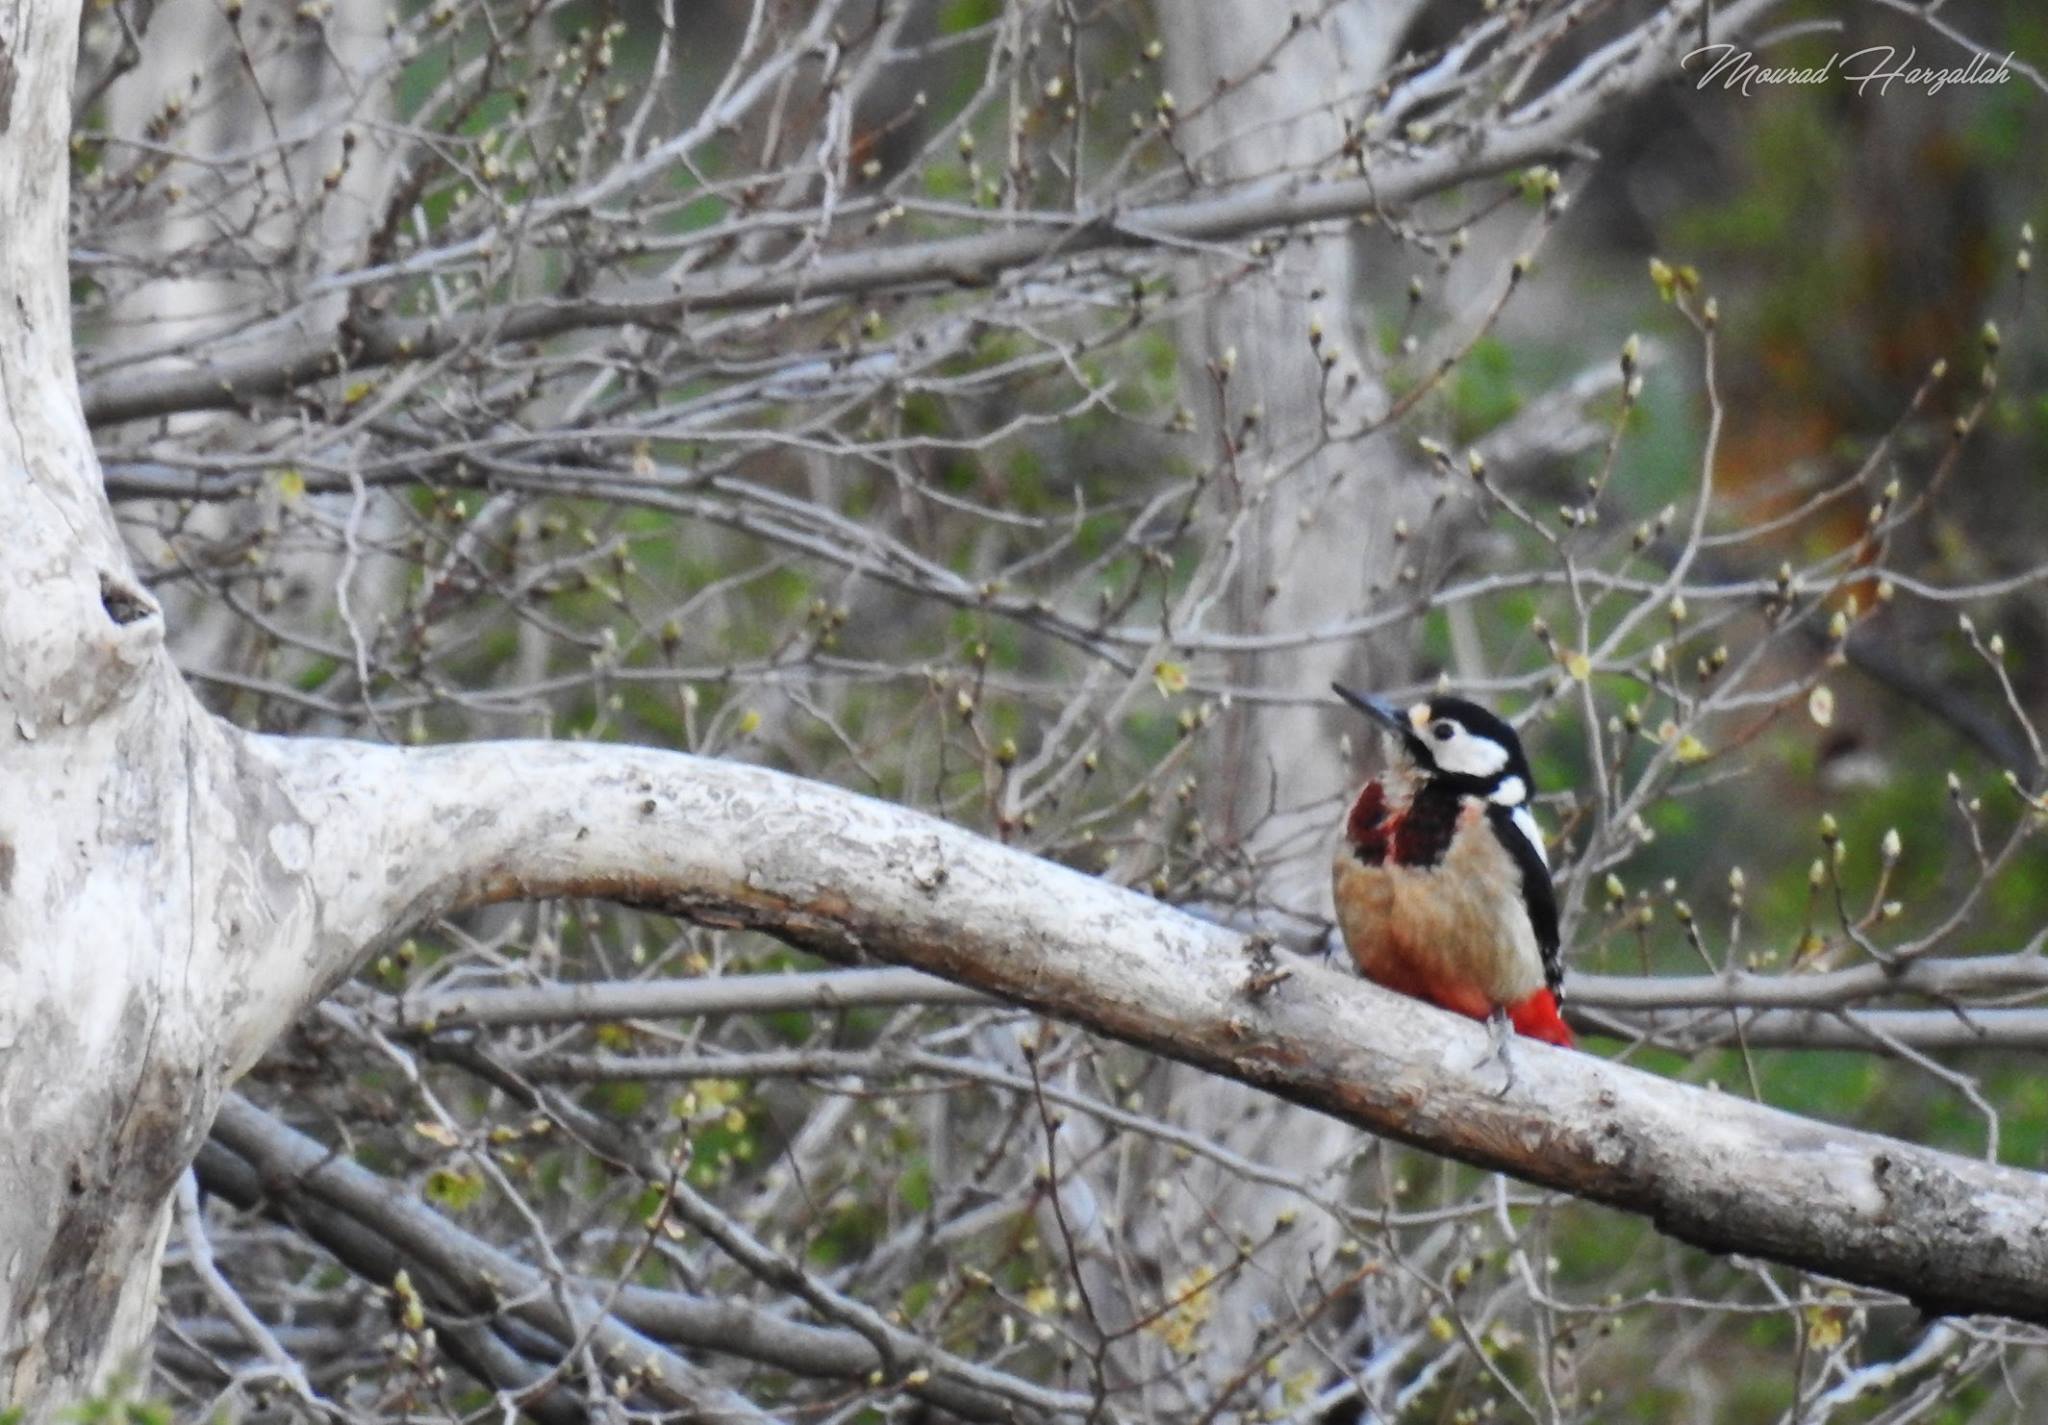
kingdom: Animalia
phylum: Chordata
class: Aves
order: Piciformes
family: Picidae
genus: Dendrocopos
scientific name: Dendrocopos major
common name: Great spotted woodpecker
